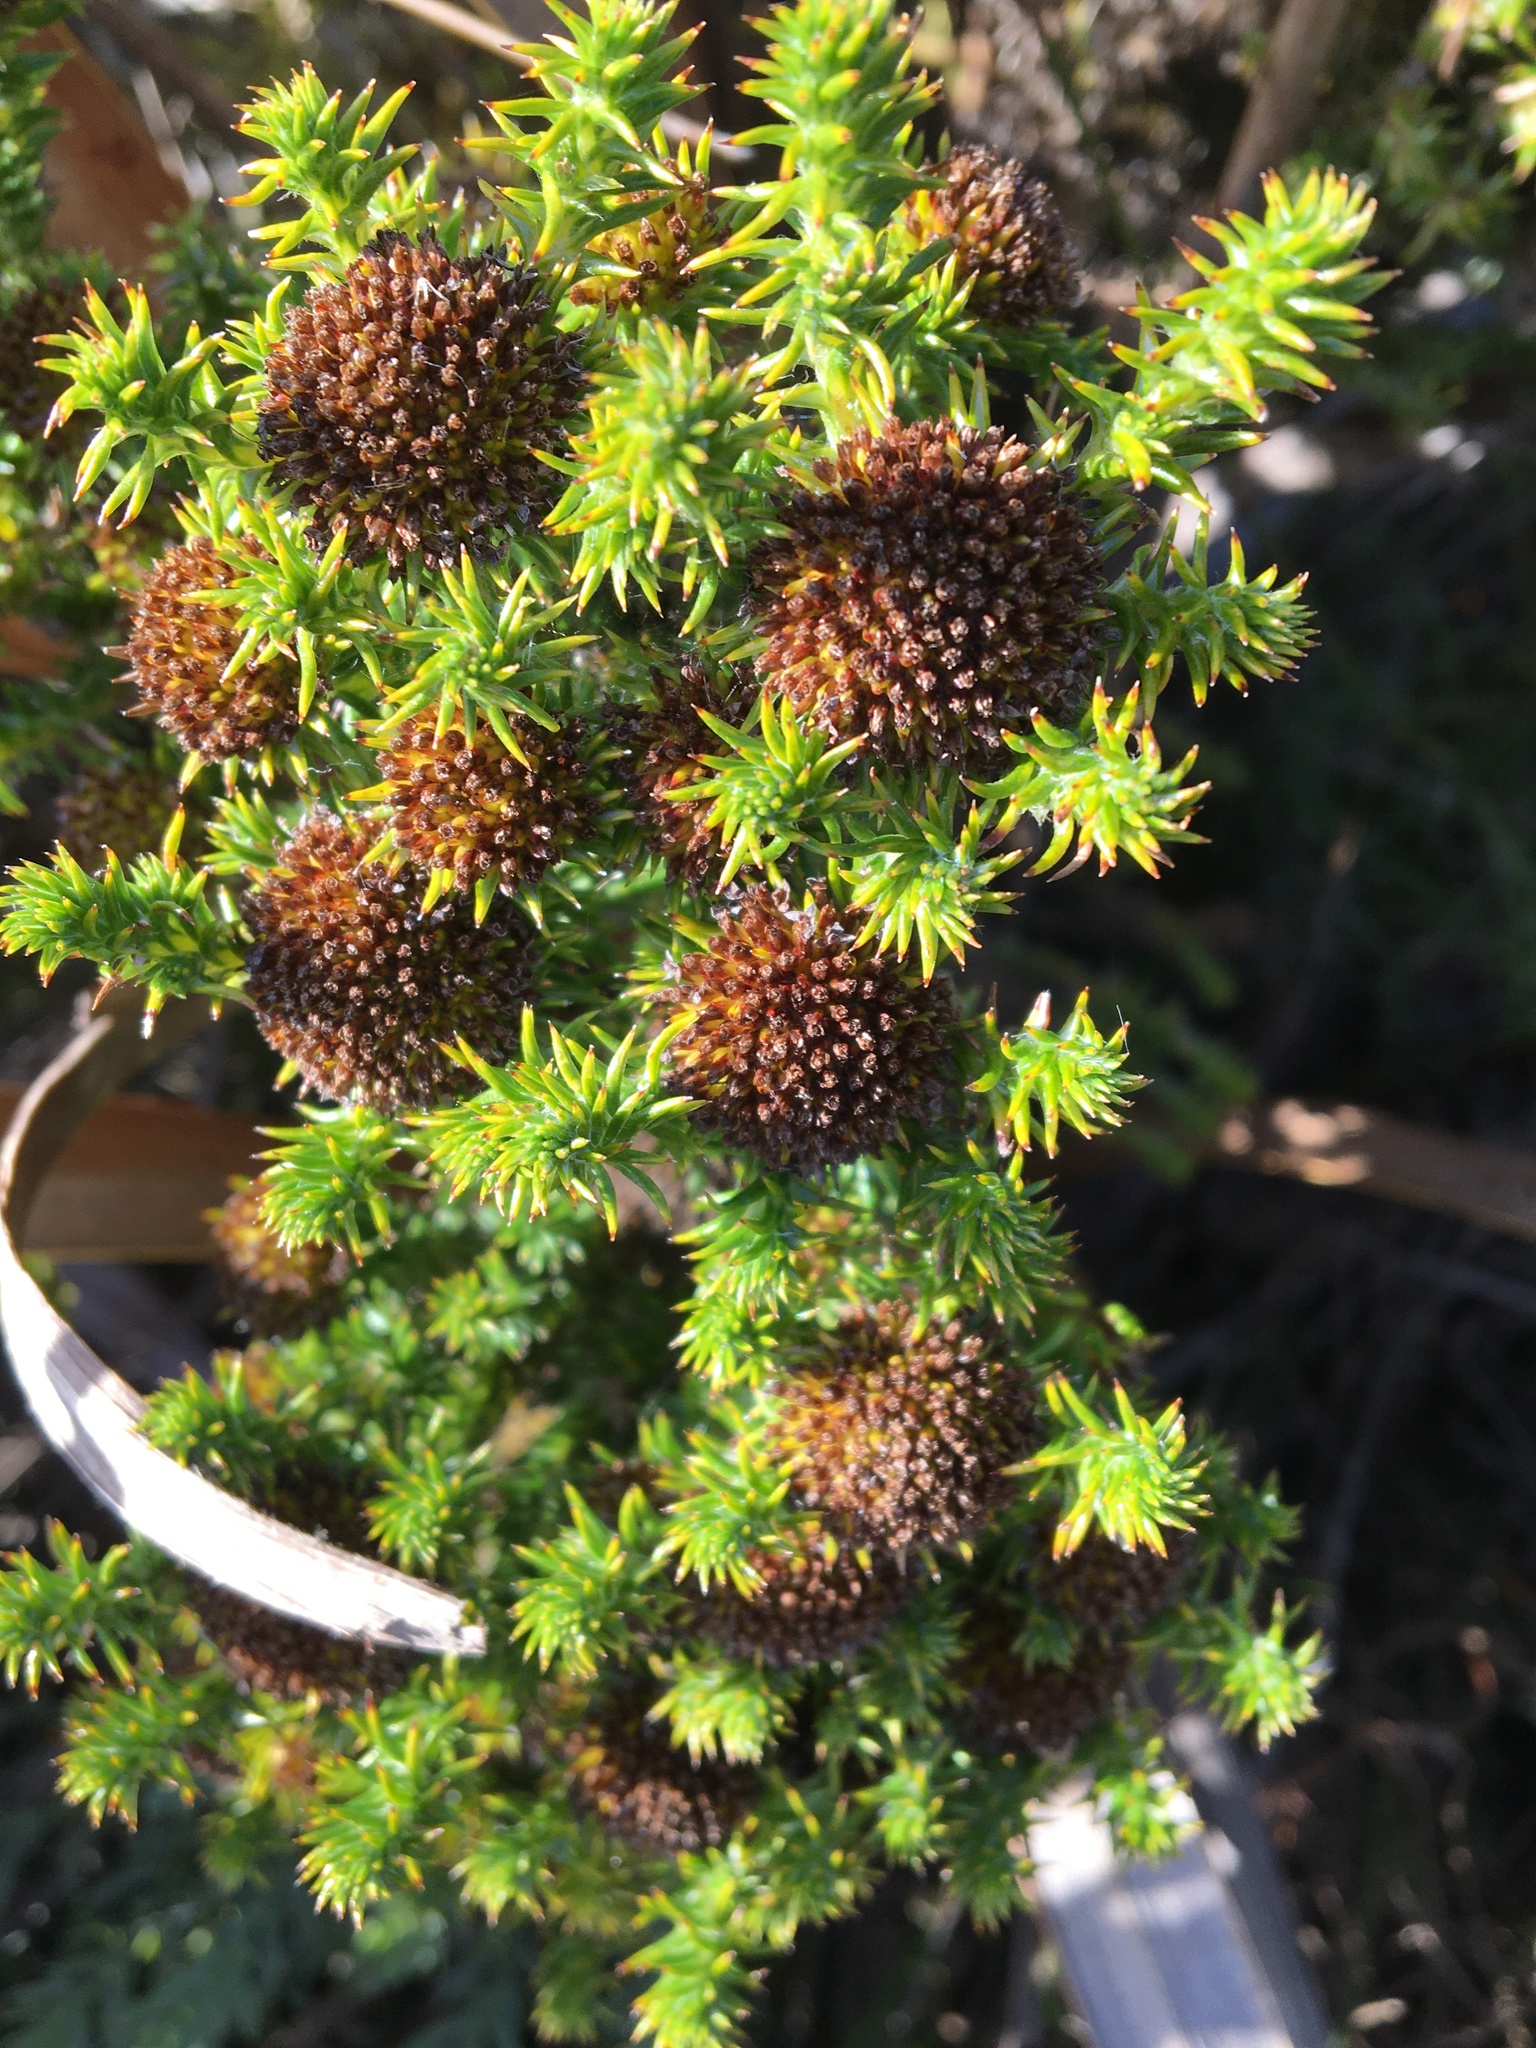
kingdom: Plantae
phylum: Tracheophyta
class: Magnoliopsida
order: Asterales
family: Asteraceae
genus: Stoebe
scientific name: Stoebe aethiopica
